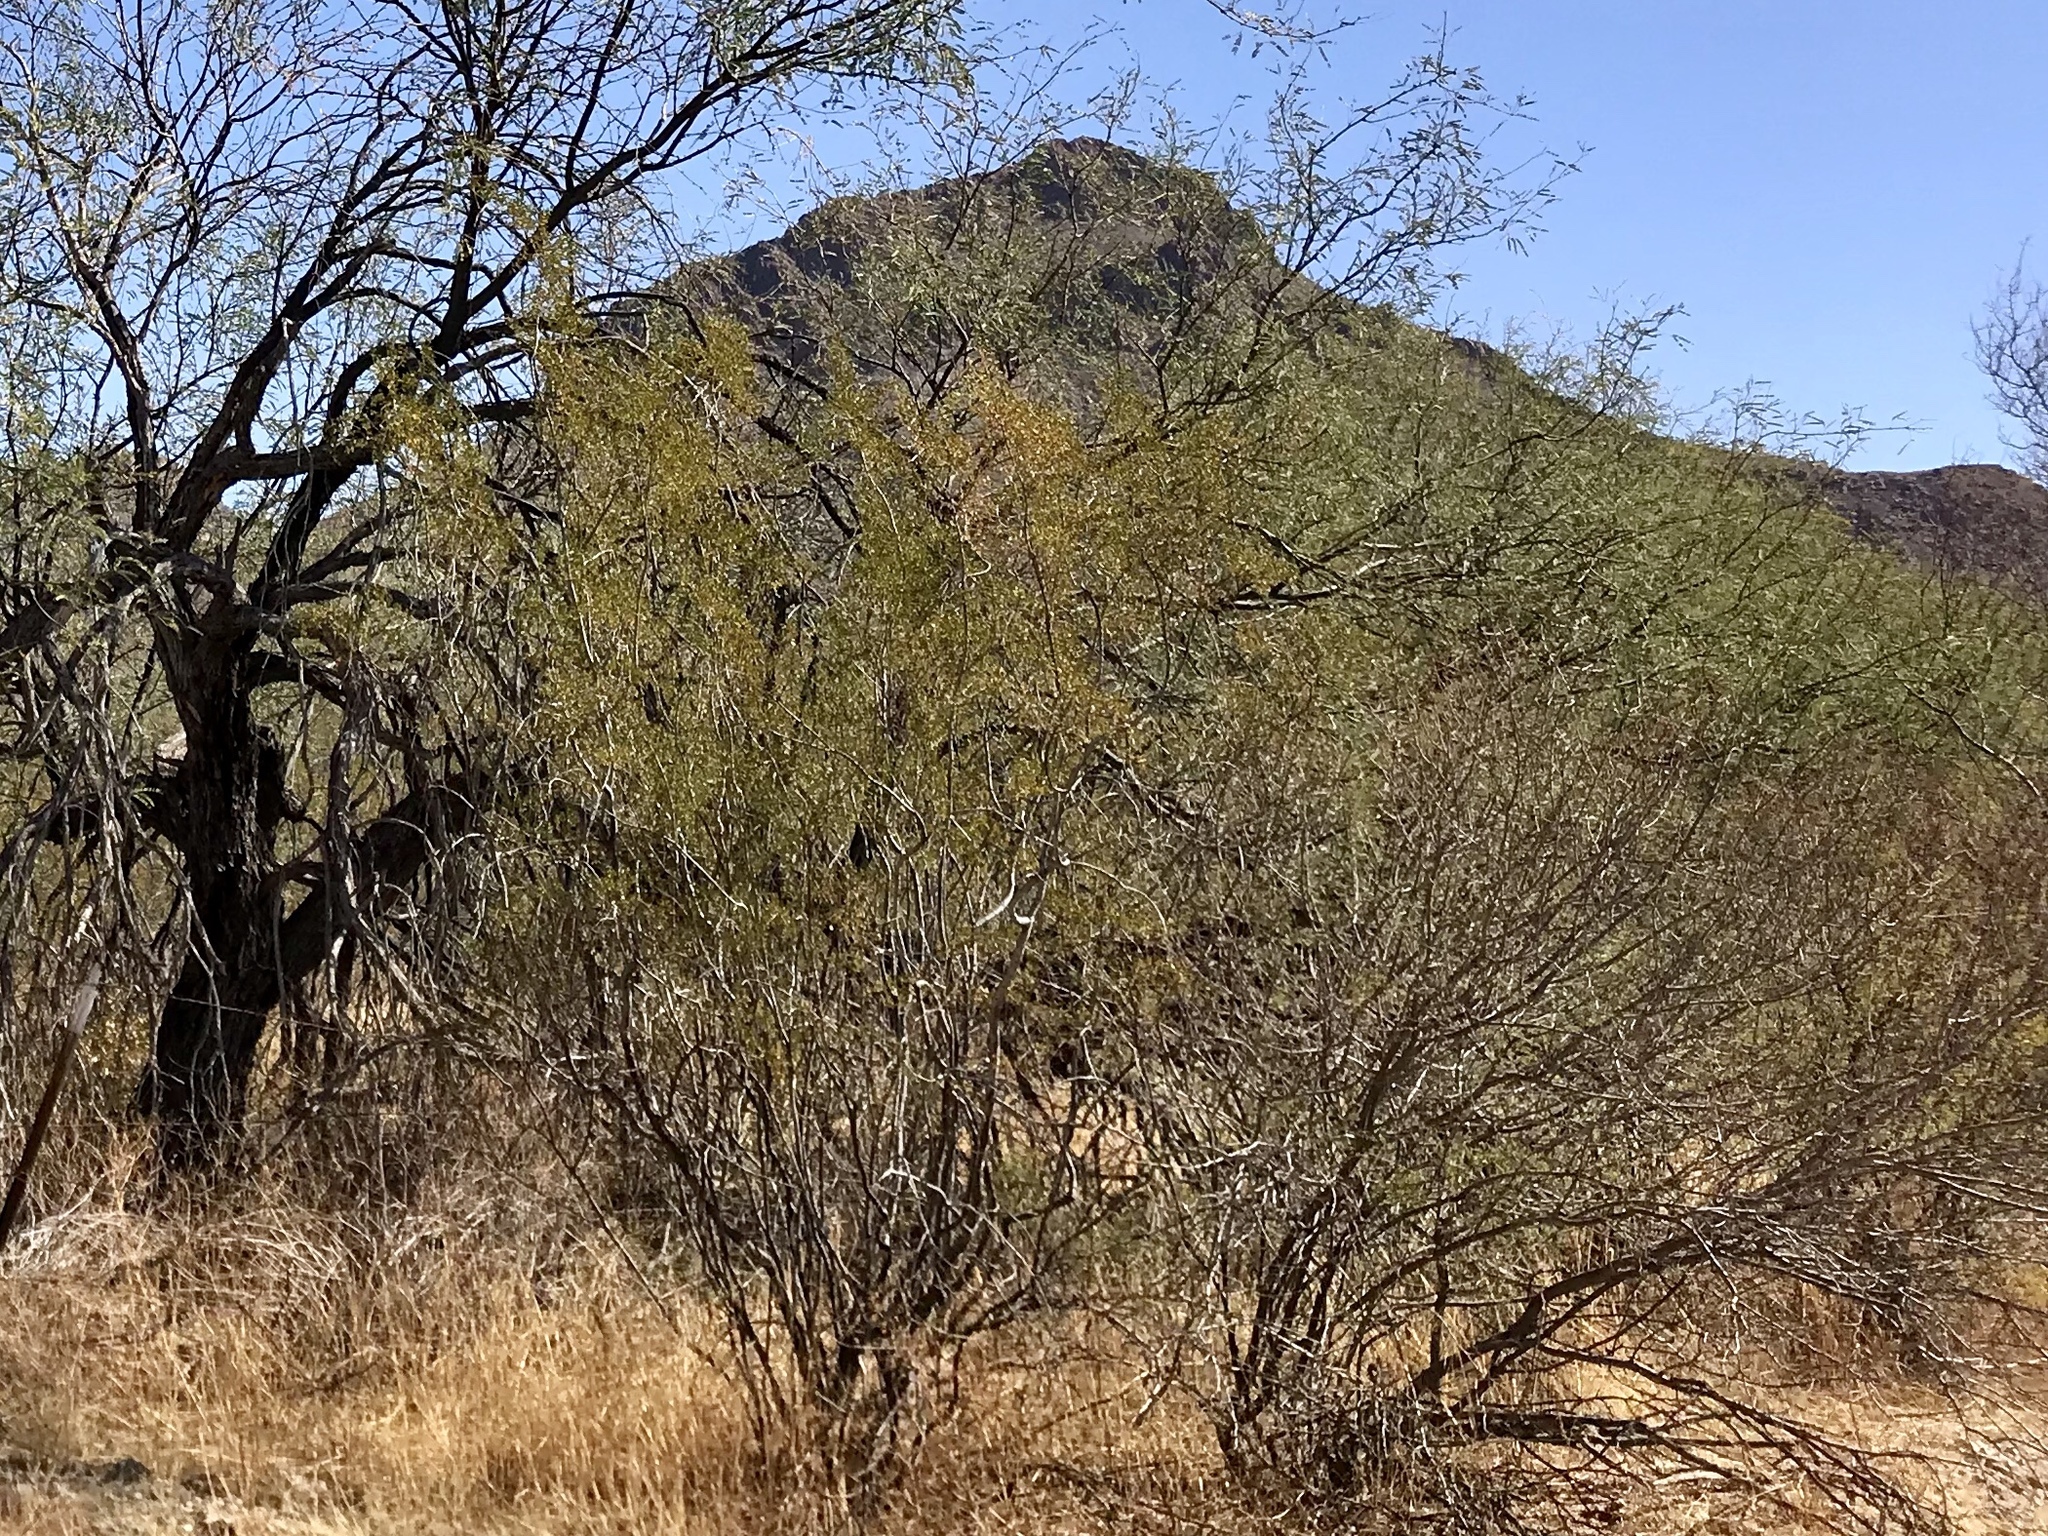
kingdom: Plantae
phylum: Tracheophyta
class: Magnoliopsida
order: Zygophyllales
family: Zygophyllaceae
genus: Larrea
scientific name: Larrea tridentata
